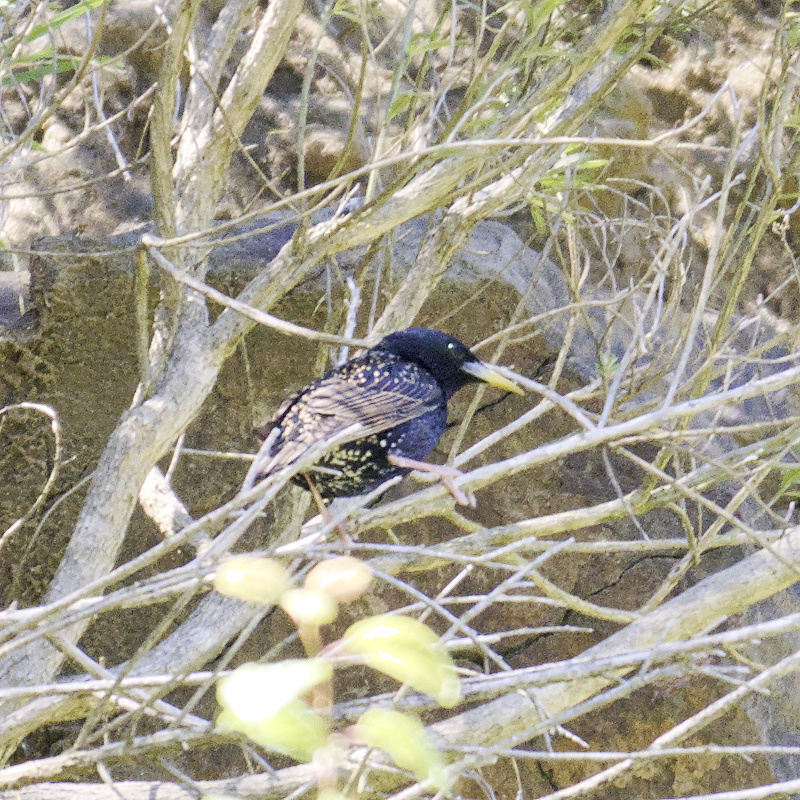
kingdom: Animalia
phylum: Chordata
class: Aves
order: Passeriformes
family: Sturnidae
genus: Sturnus
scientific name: Sturnus vulgaris
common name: Common starling
